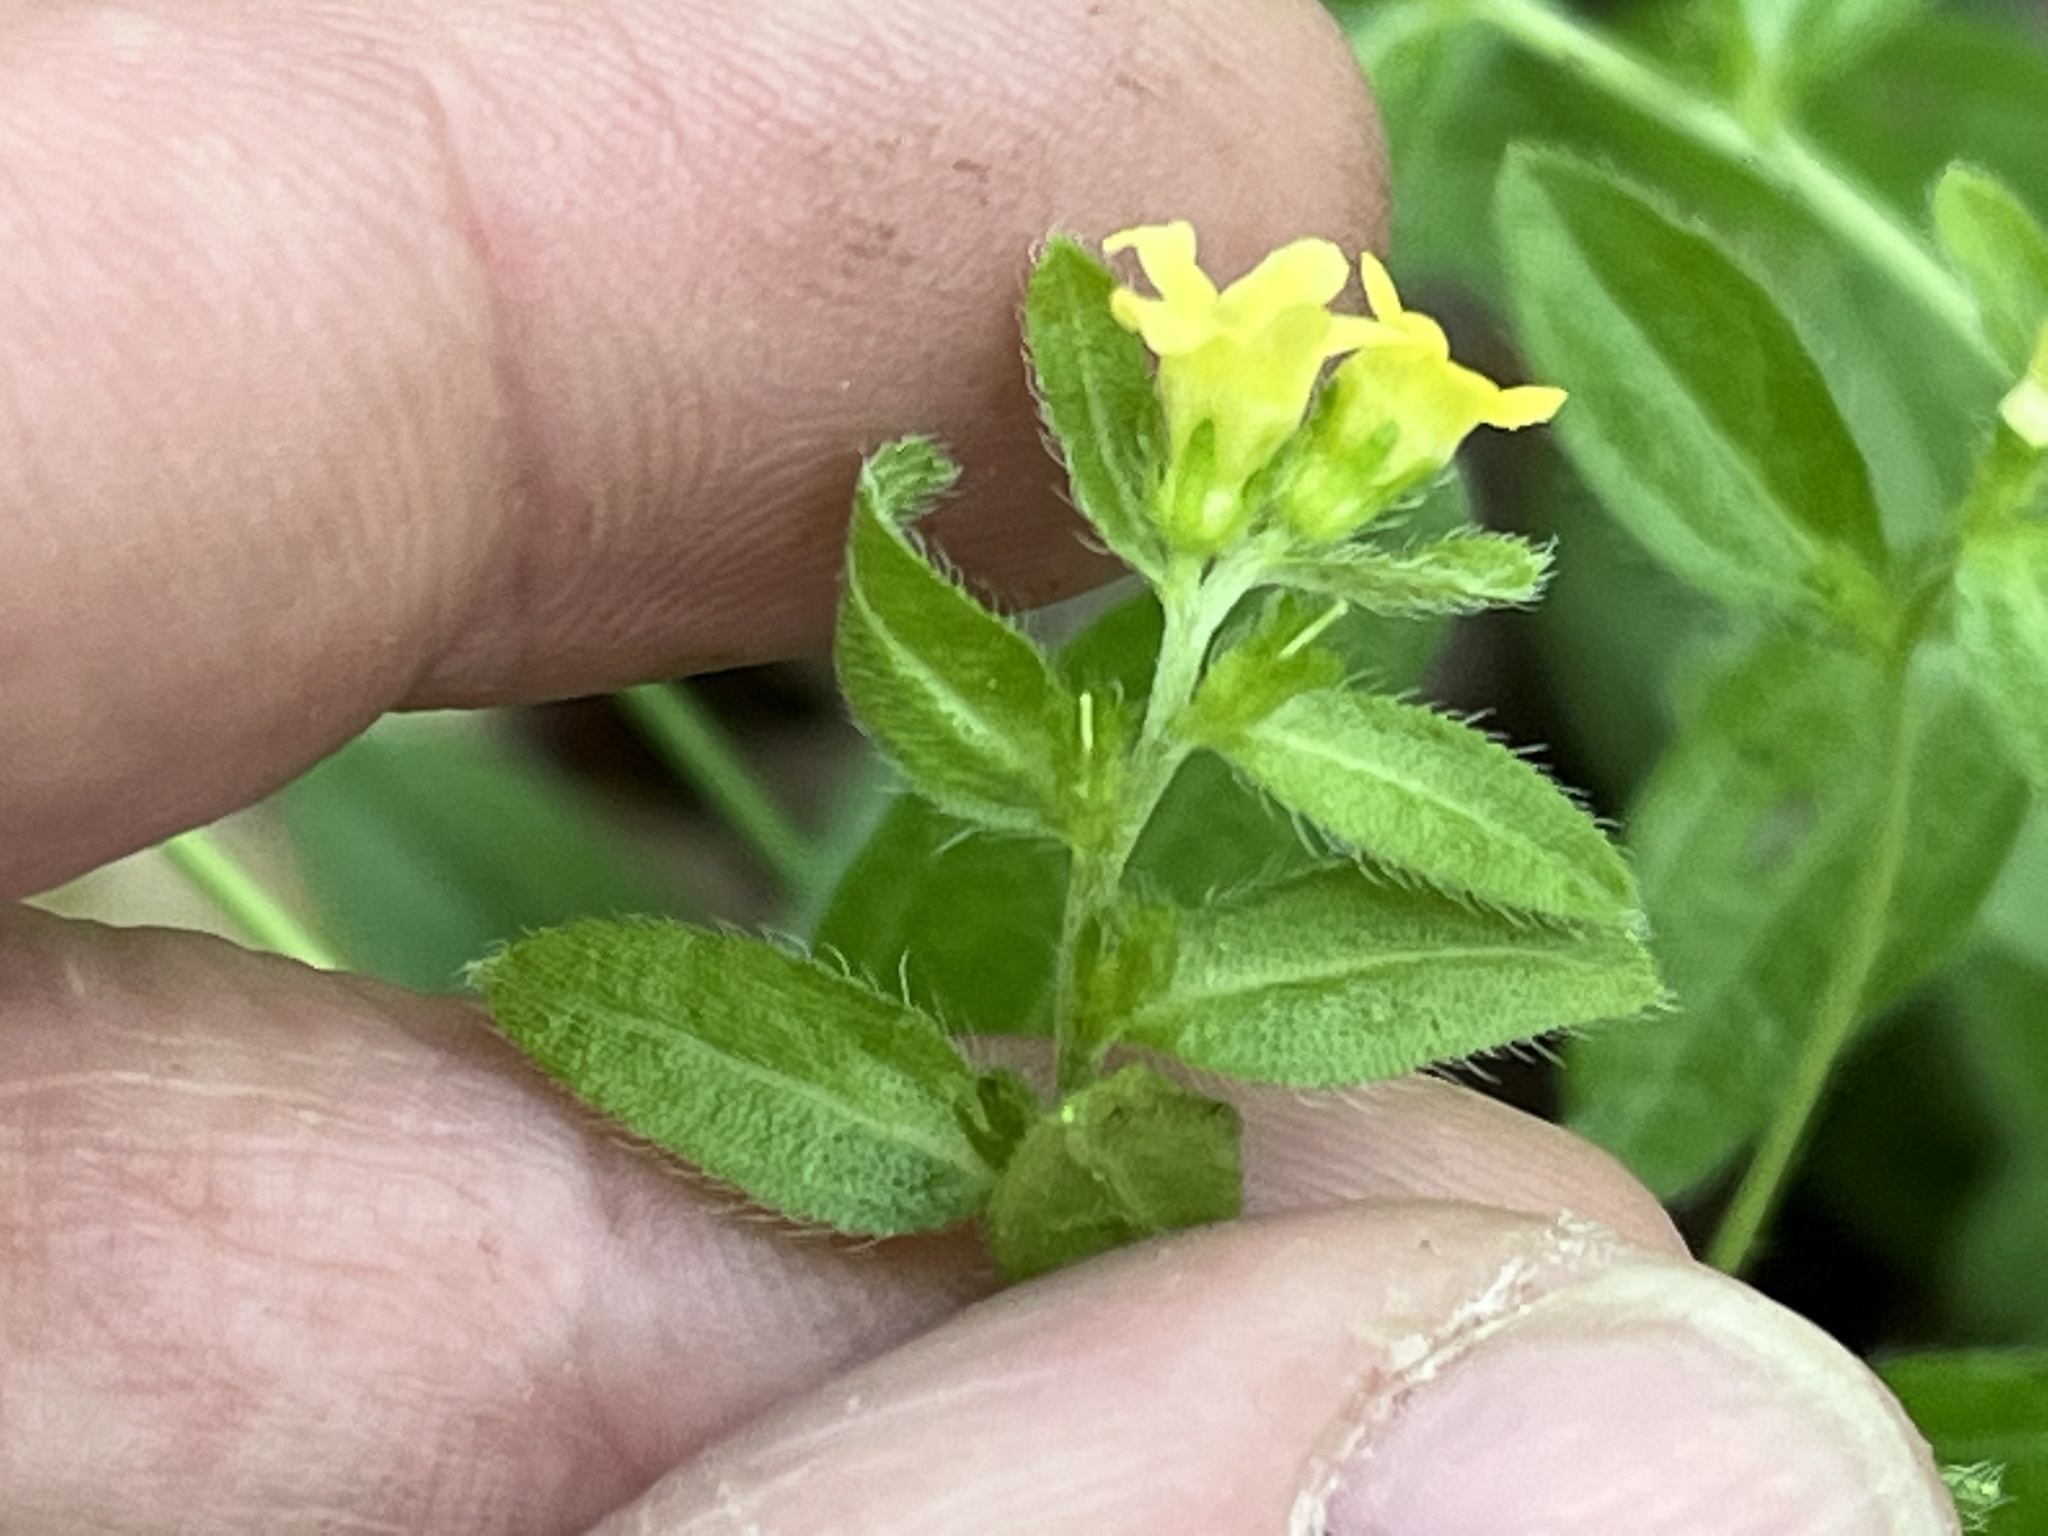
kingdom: Plantae
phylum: Tracheophyta
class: Magnoliopsida
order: Boraginales
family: Boraginaceae
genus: Lithospermum
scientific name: Lithospermum tuberosum
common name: Southern stoneseed
